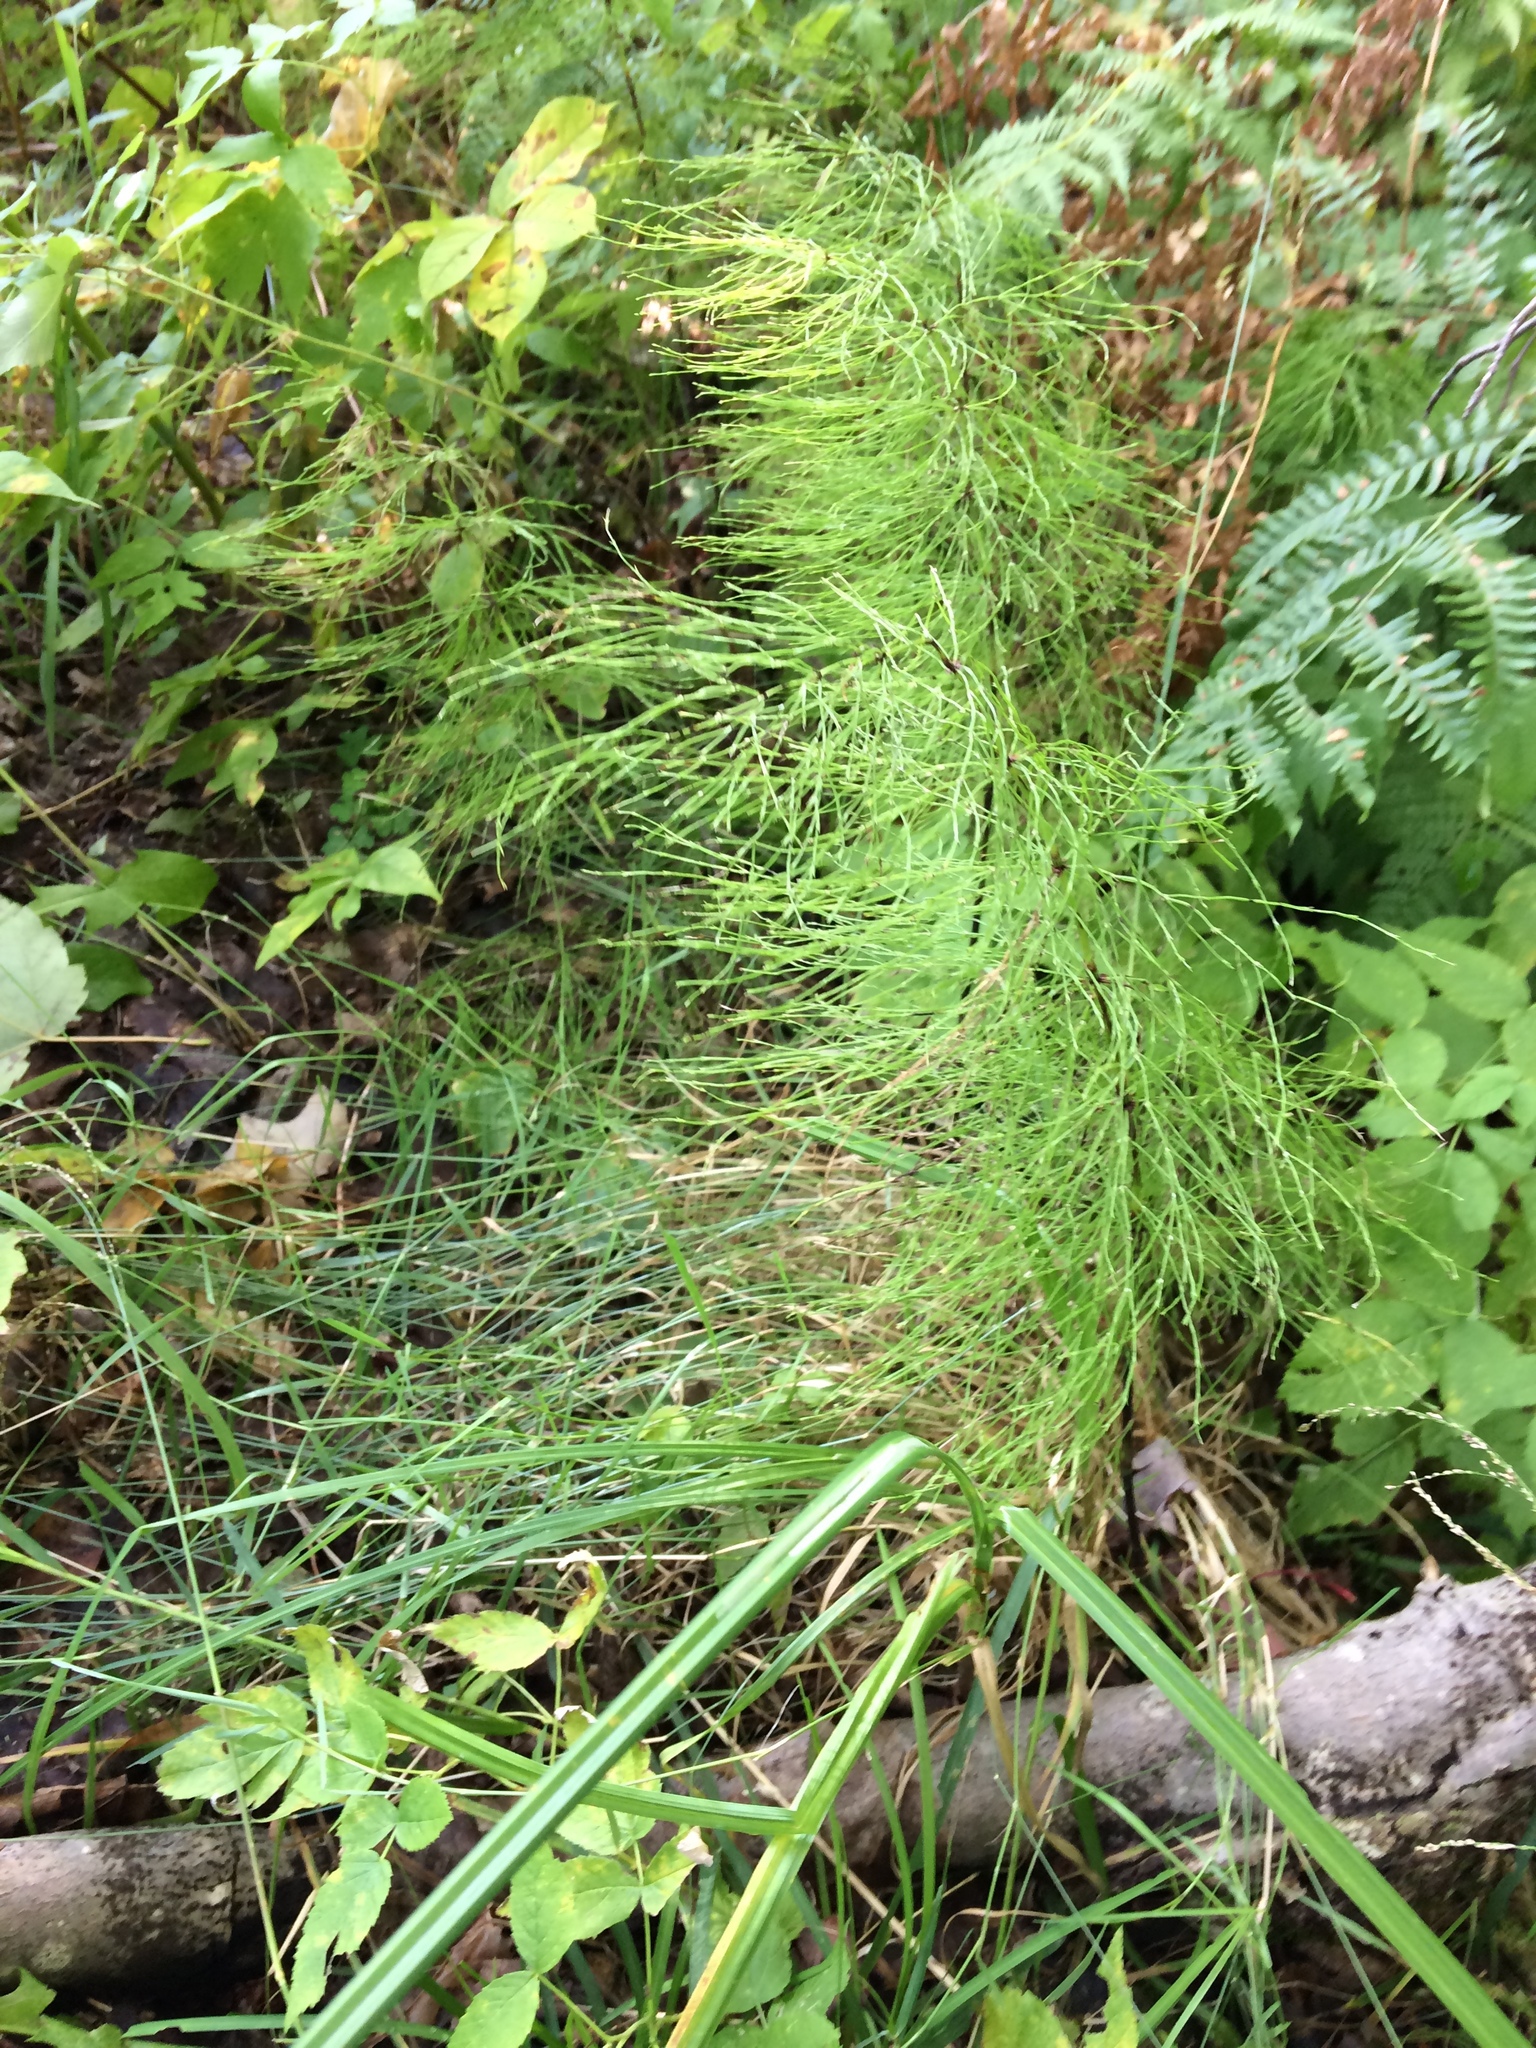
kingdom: Plantae
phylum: Tracheophyta
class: Polypodiopsida
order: Equisetales
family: Equisetaceae
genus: Equisetum
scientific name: Equisetum sylvaticum
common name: Wood horsetail
